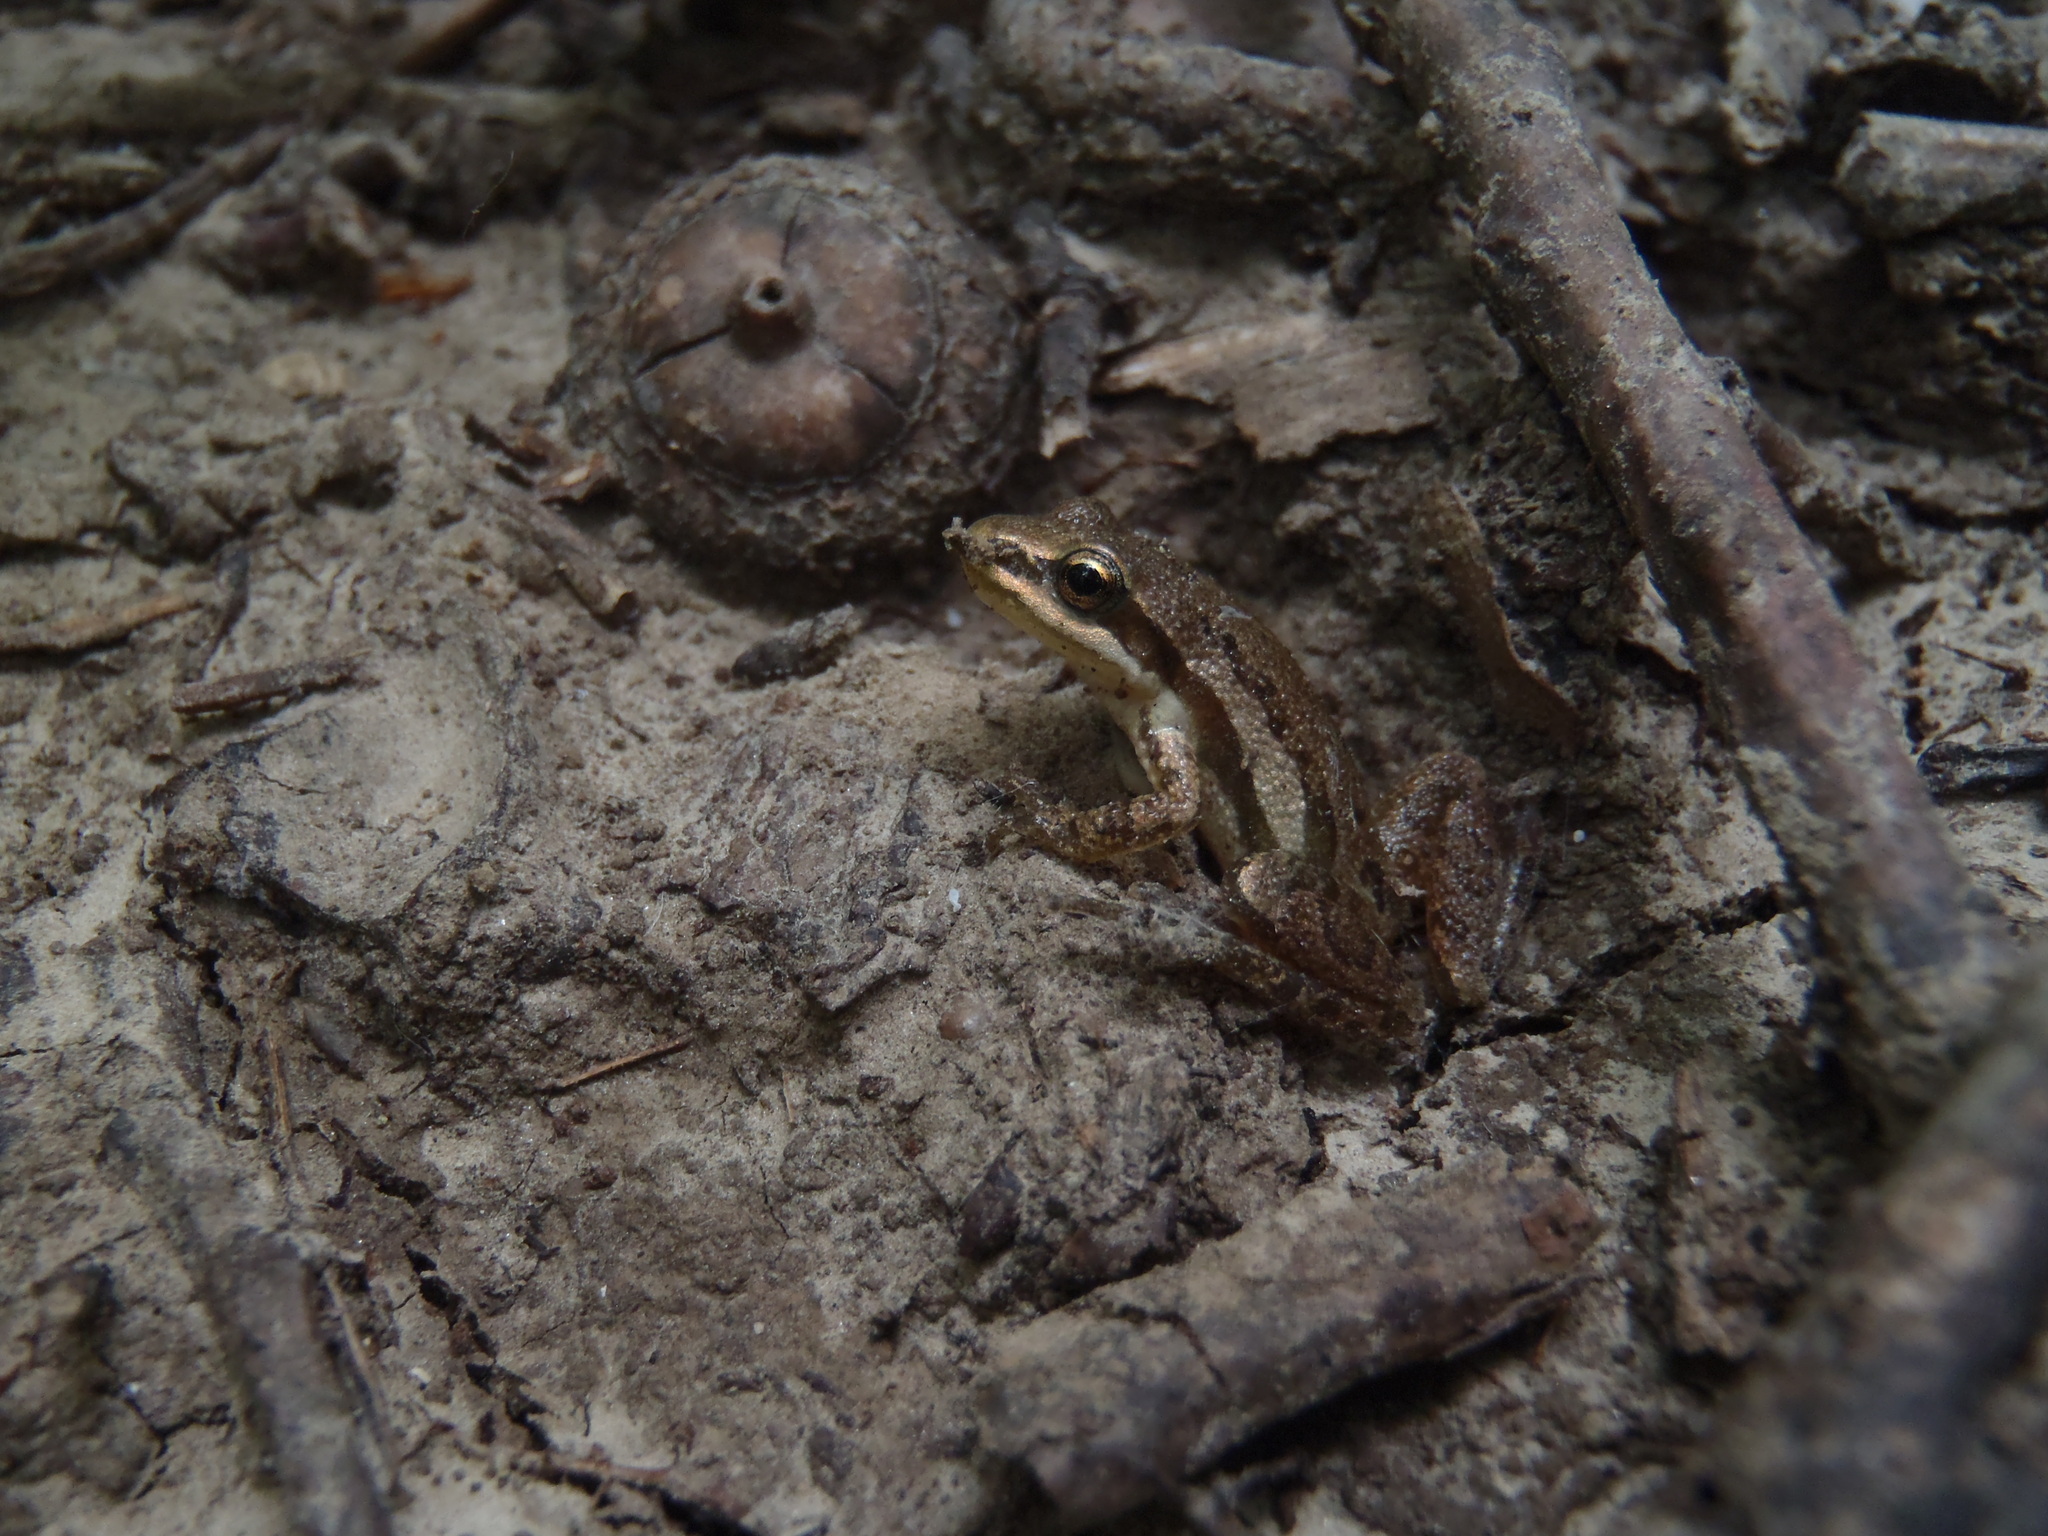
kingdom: Animalia
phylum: Chordata
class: Amphibia
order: Anura
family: Hylidae
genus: Pseudacris
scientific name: Pseudacris maculata
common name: Boreal chorus frog
